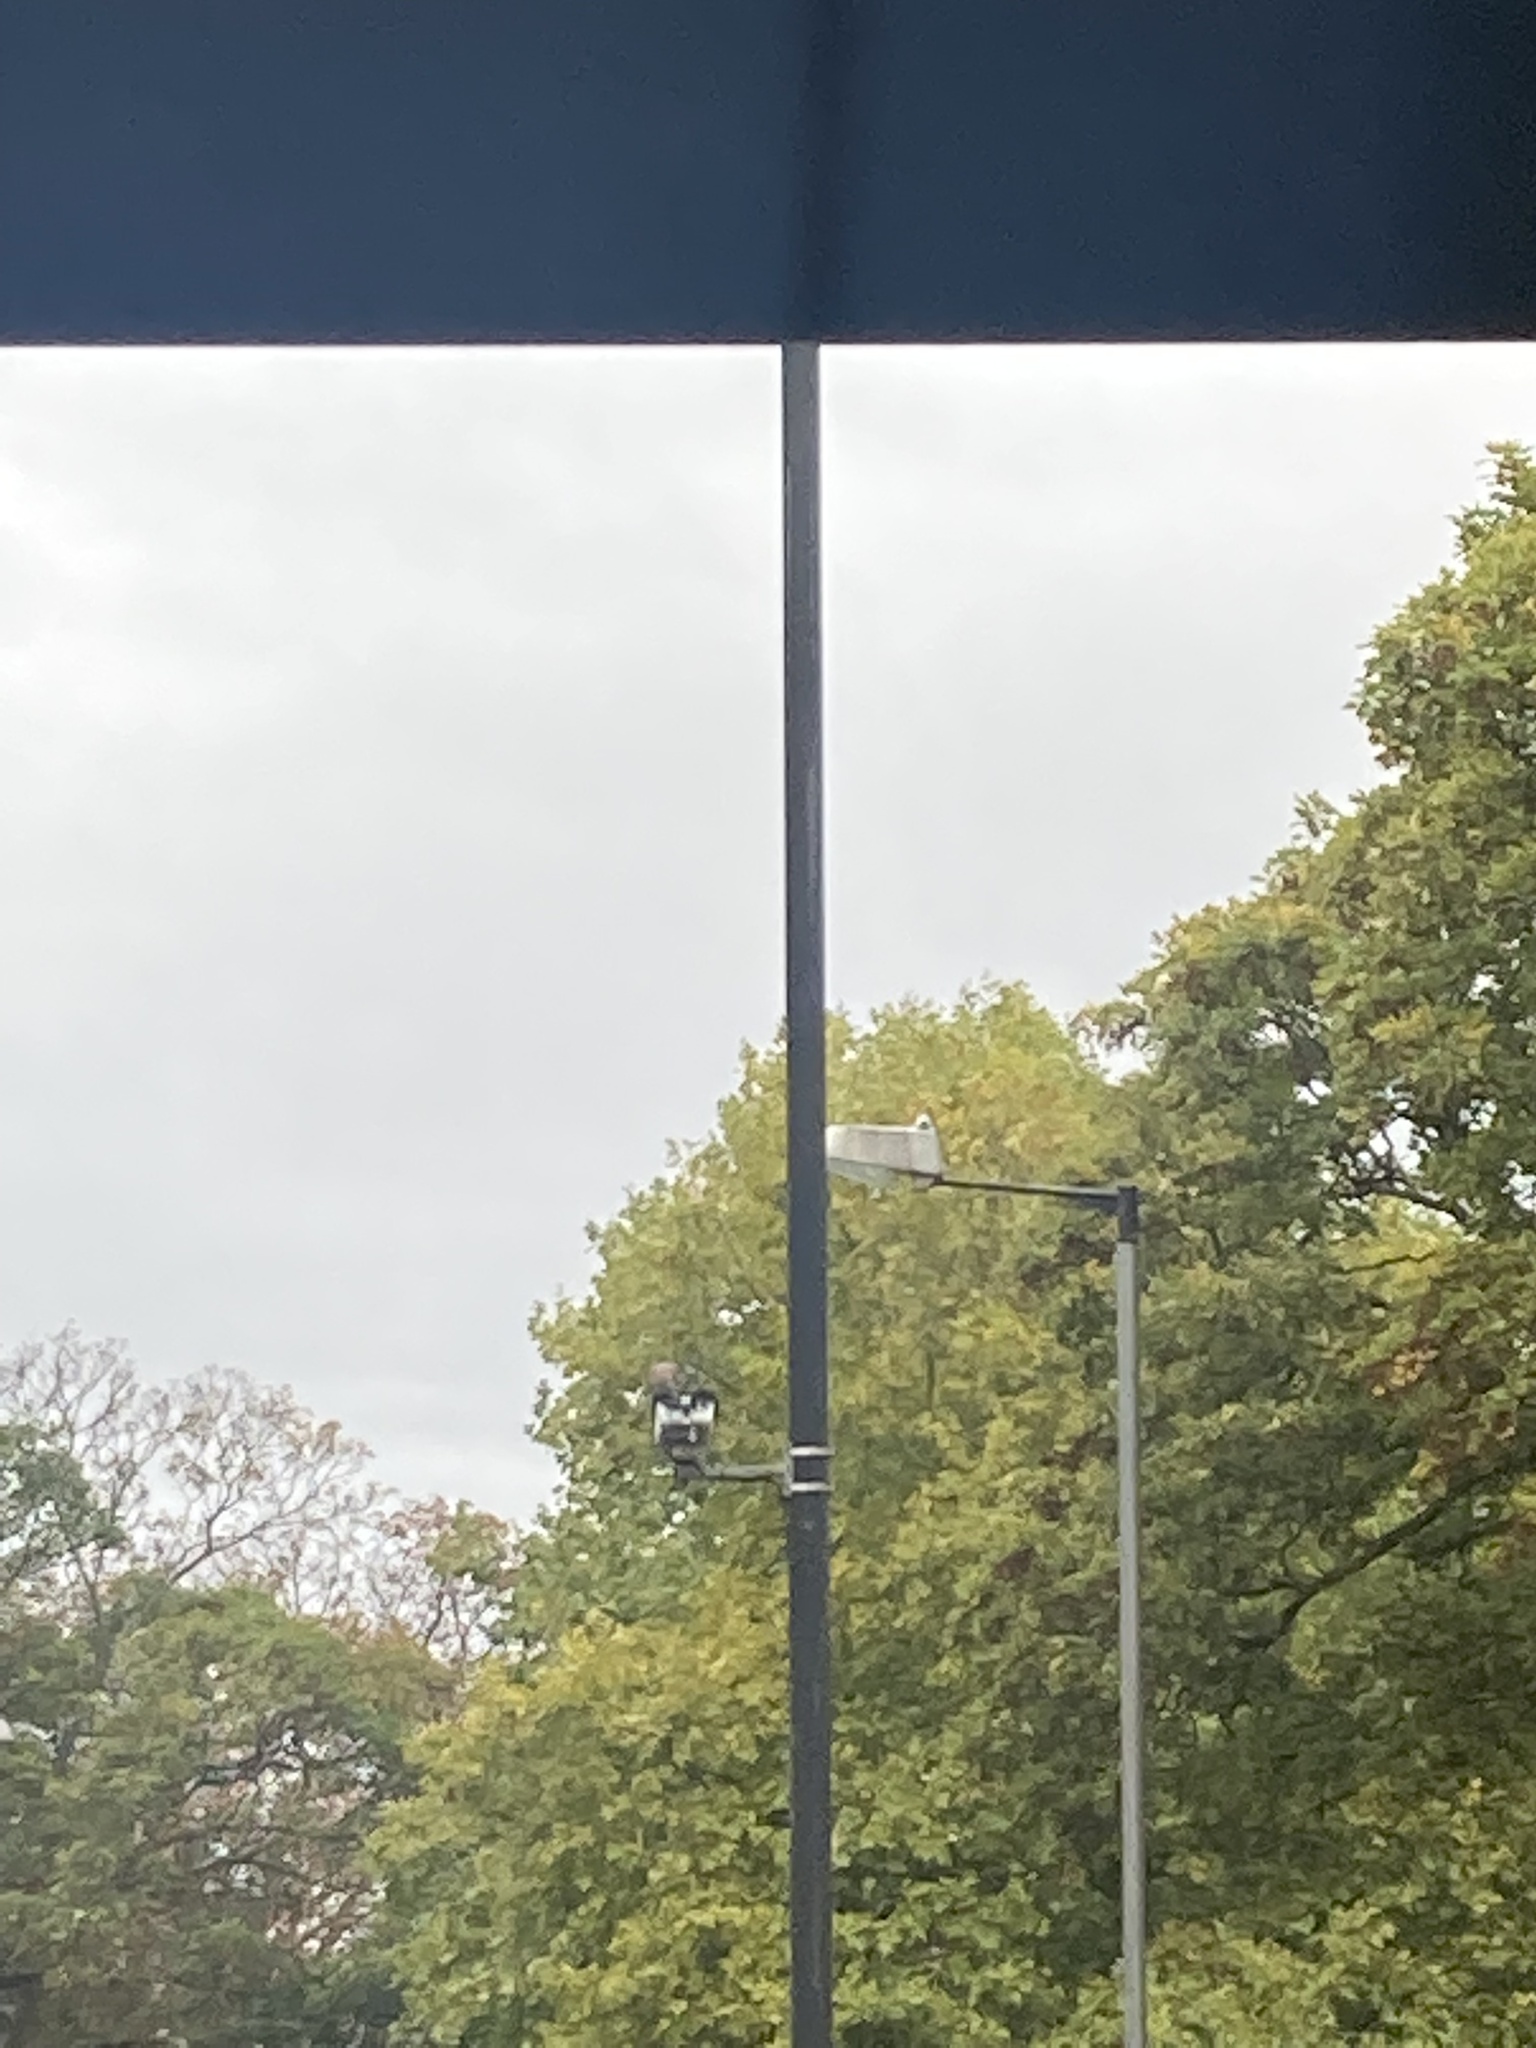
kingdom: Animalia
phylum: Chordata
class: Aves
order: Passeriformes
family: Corvidae
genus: Garrulus
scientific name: Garrulus glandarius
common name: Eurasian jay
